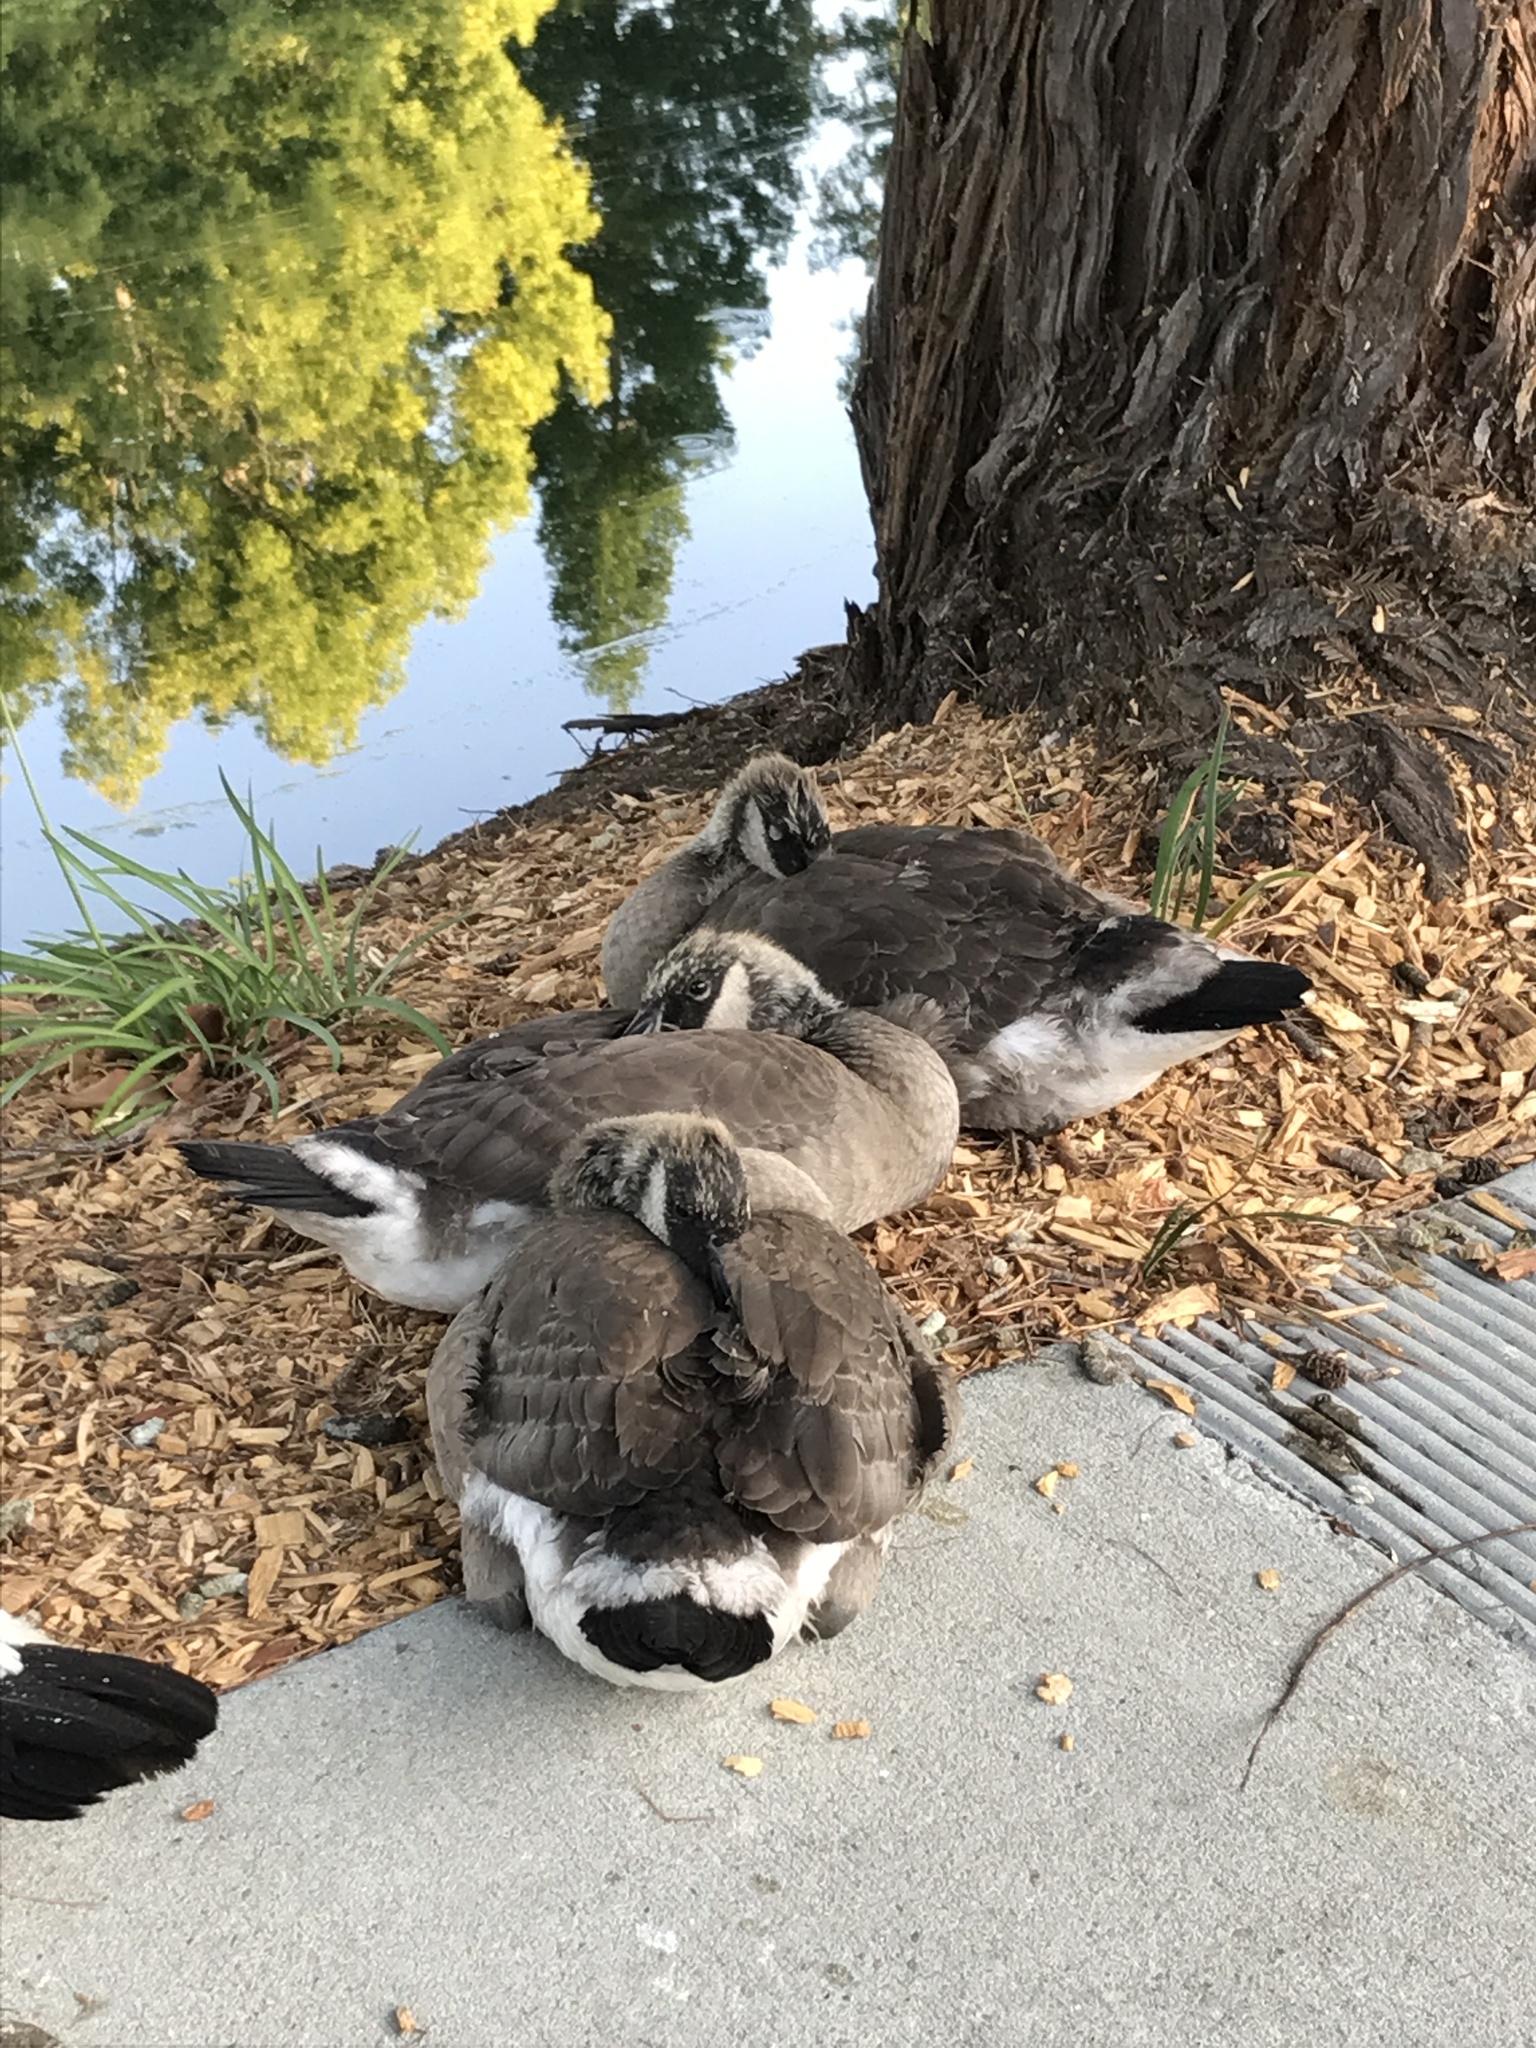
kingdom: Animalia
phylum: Chordata
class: Aves
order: Anseriformes
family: Anatidae
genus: Branta
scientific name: Branta canadensis
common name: Canada goose
